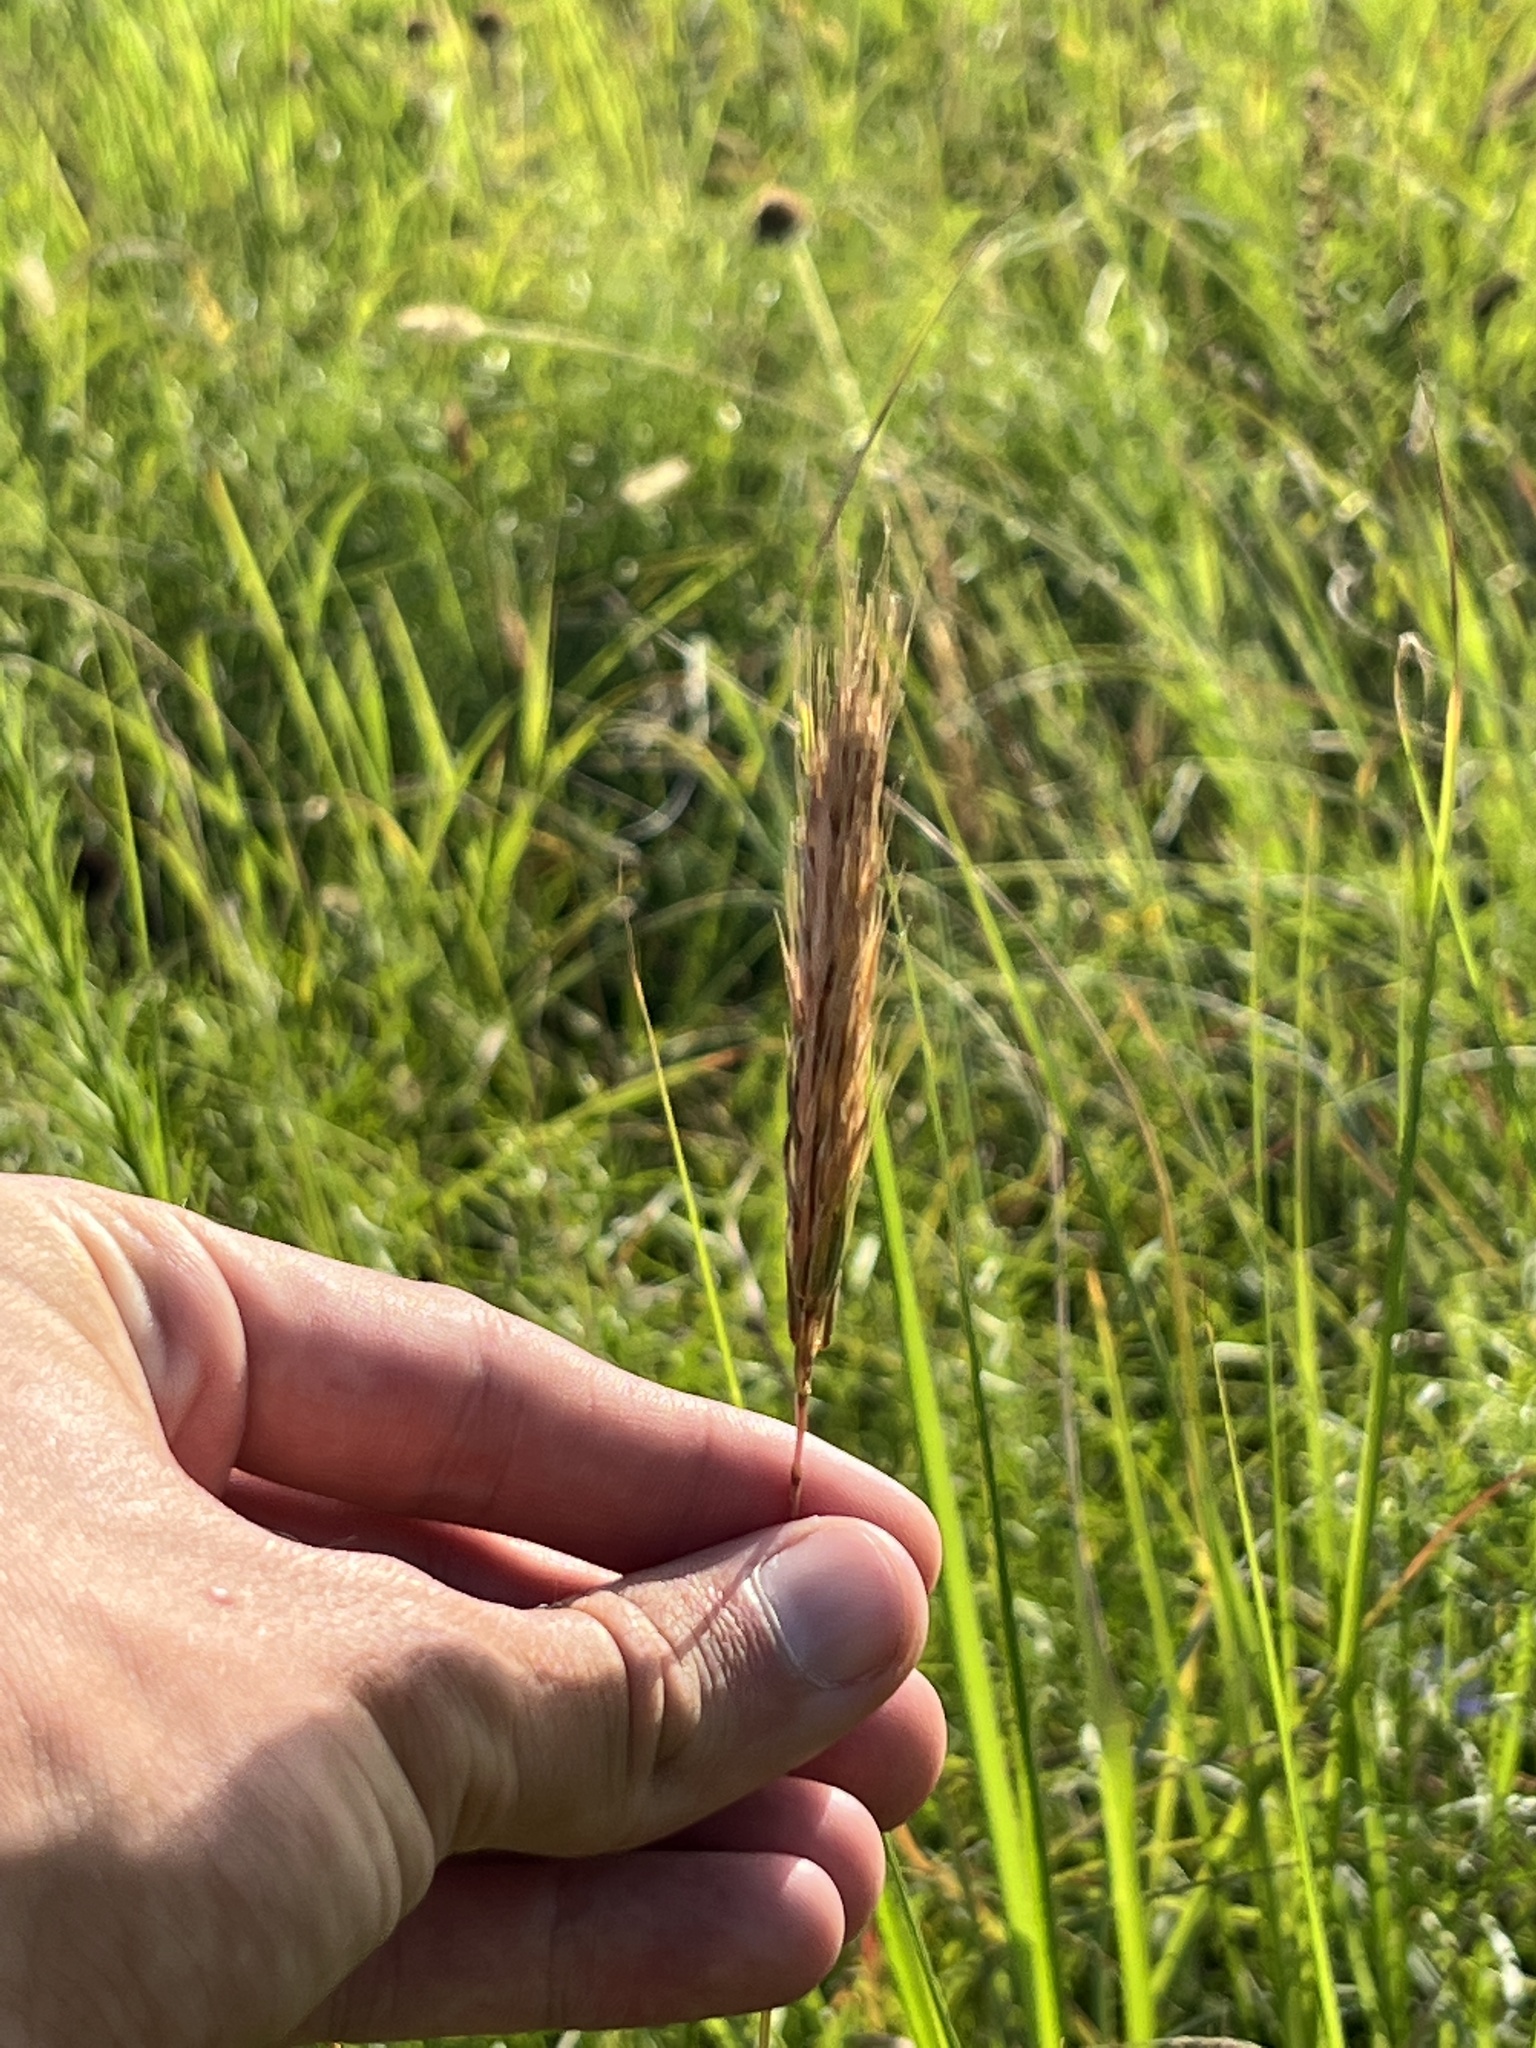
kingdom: Plantae
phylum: Tracheophyta
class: Liliopsida
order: Poales
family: Poaceae
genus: Elymus
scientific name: Elymus virginicus
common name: Common eastern wildrye
